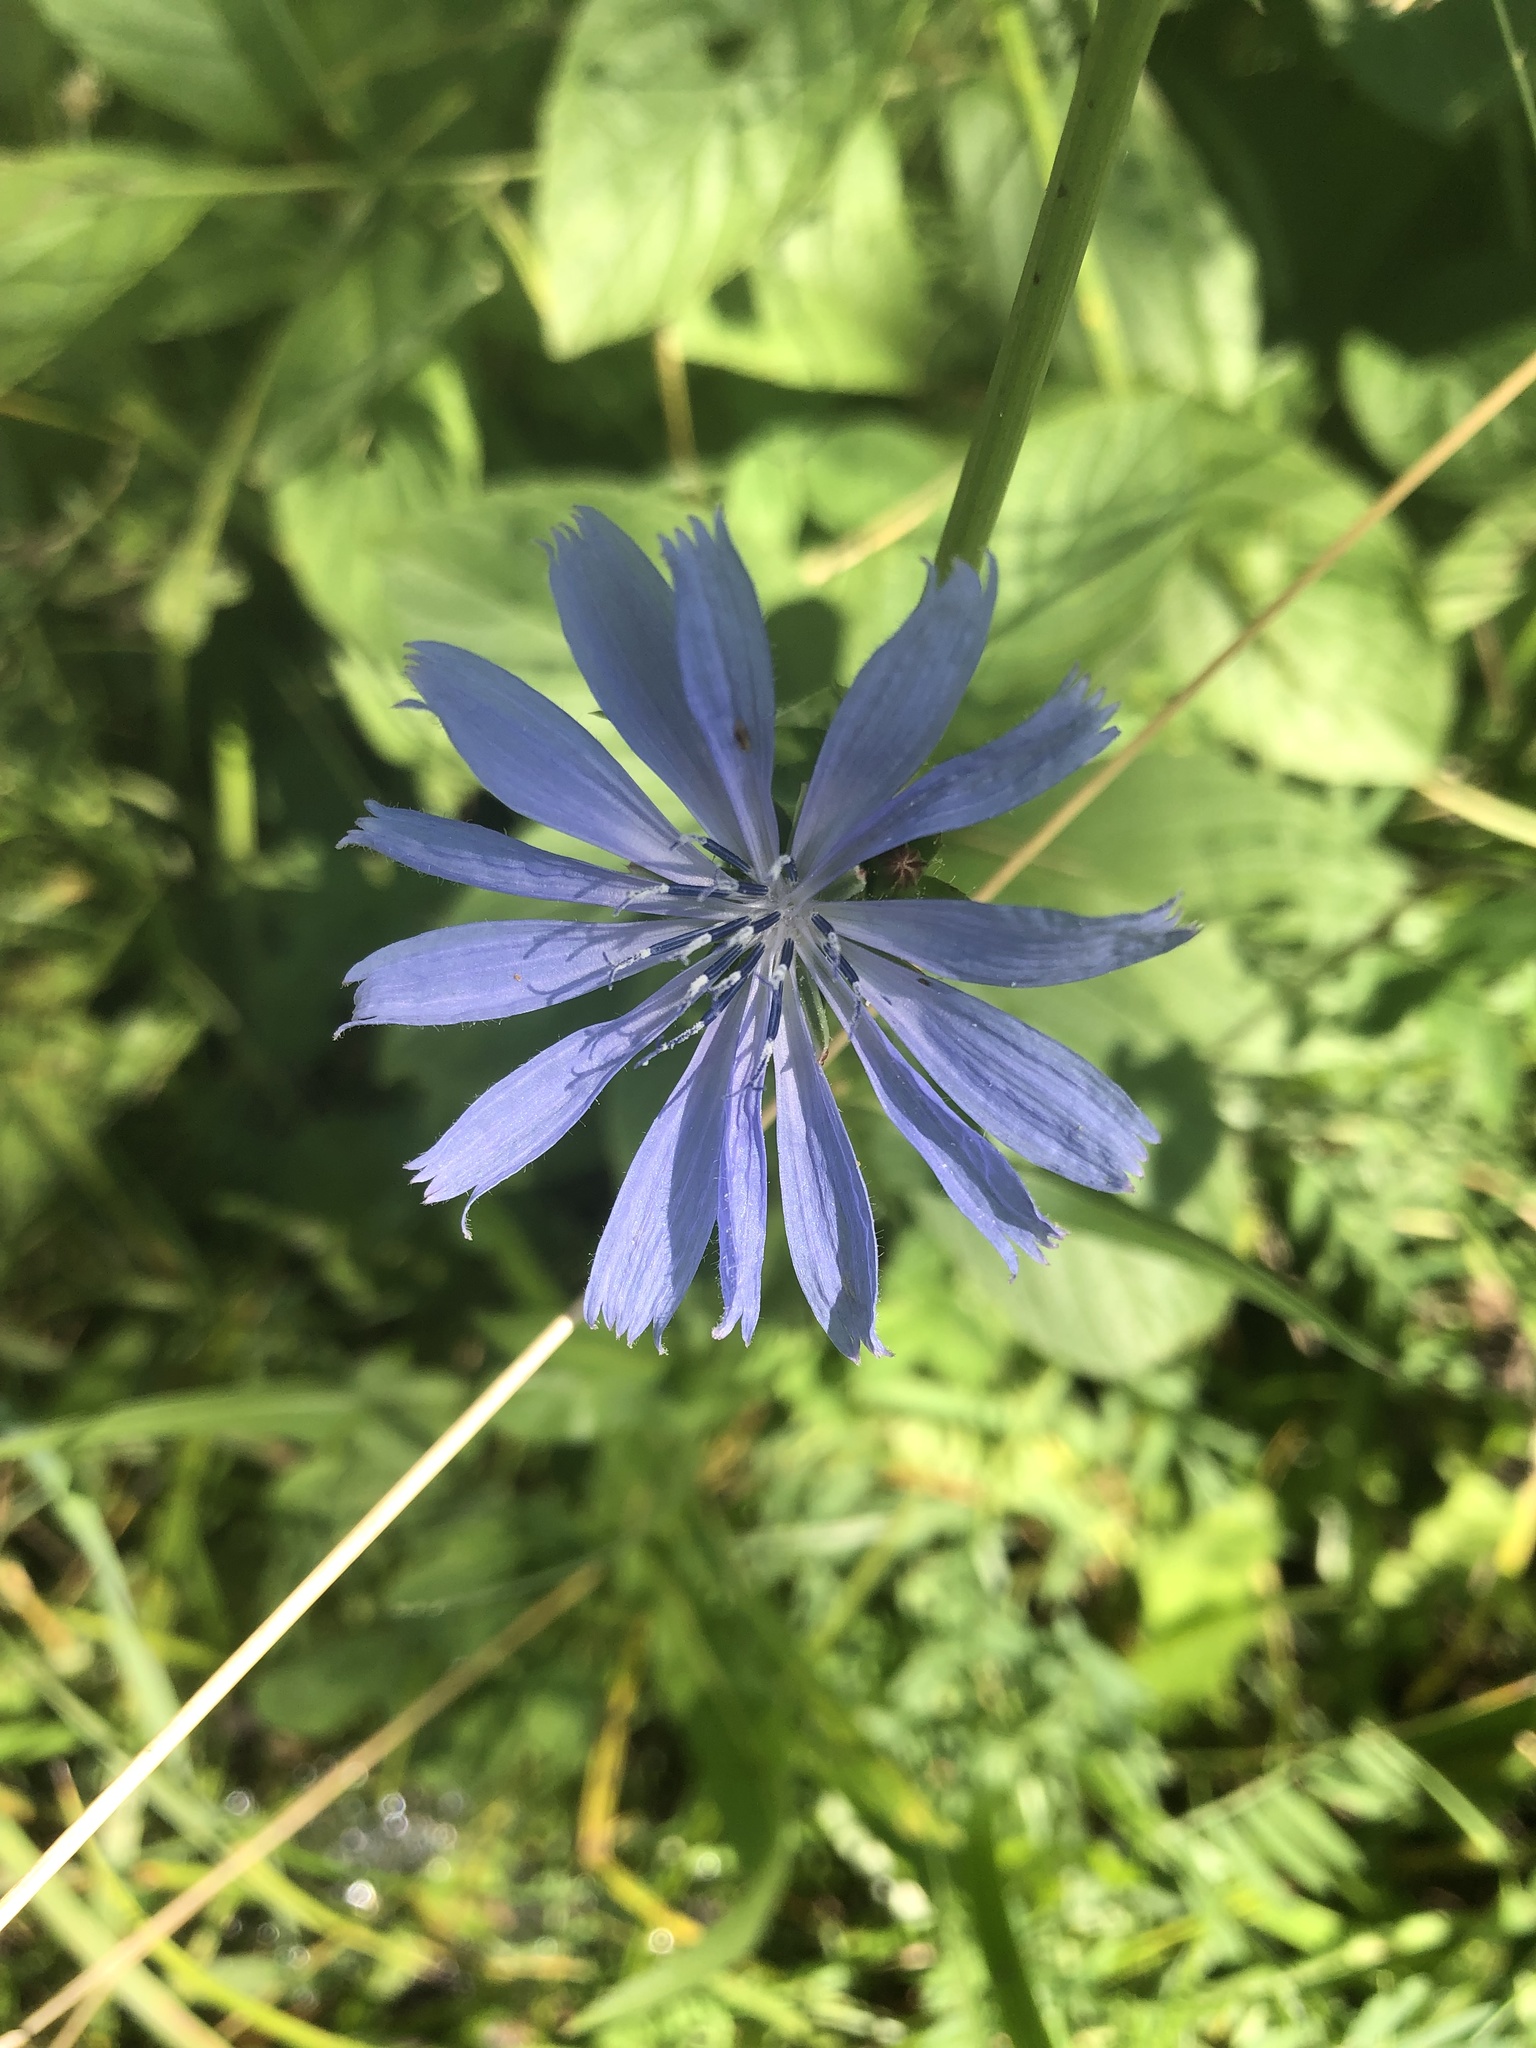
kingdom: Plantae
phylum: Tracheophyta
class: Magnoliopsida
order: Asterales
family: Asteraceae
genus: Cichorium
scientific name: Cichorium intybus
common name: Chicory
